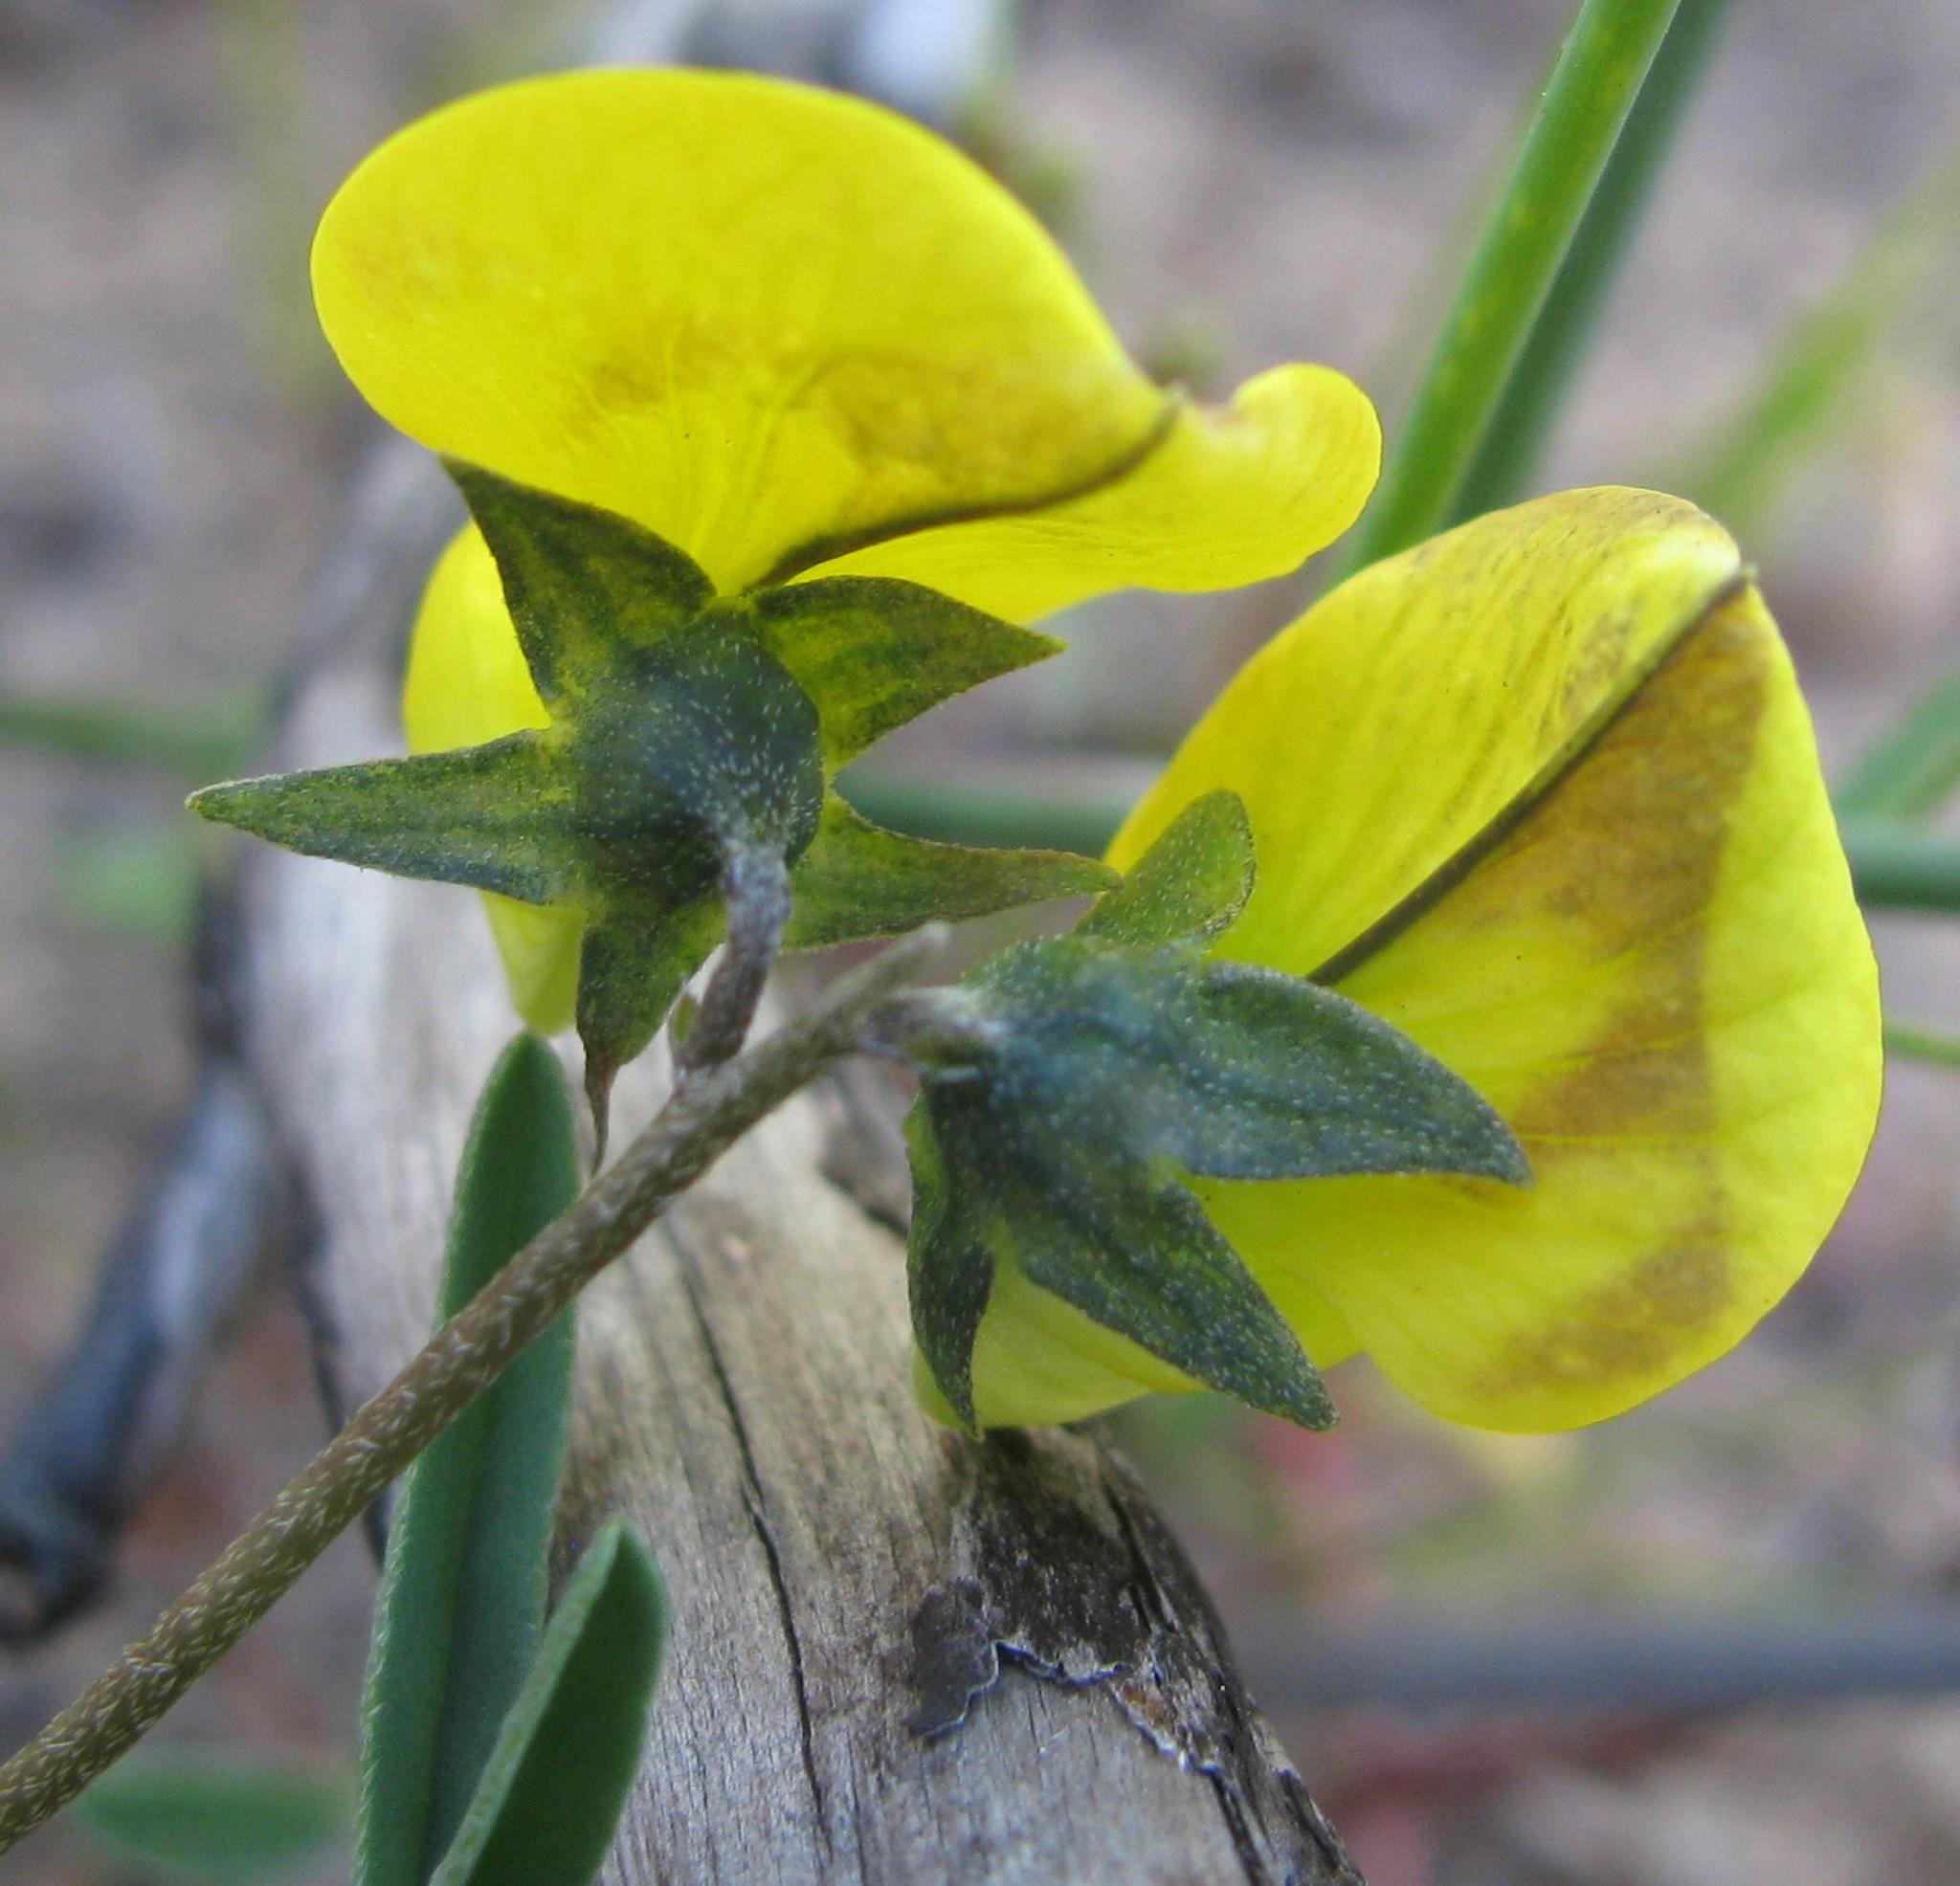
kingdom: Plantae
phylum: Tracheophyta
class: Magnoliopsida
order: Fabales
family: Fabaceae
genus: Crotalaria
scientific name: Crotalaria excisa
